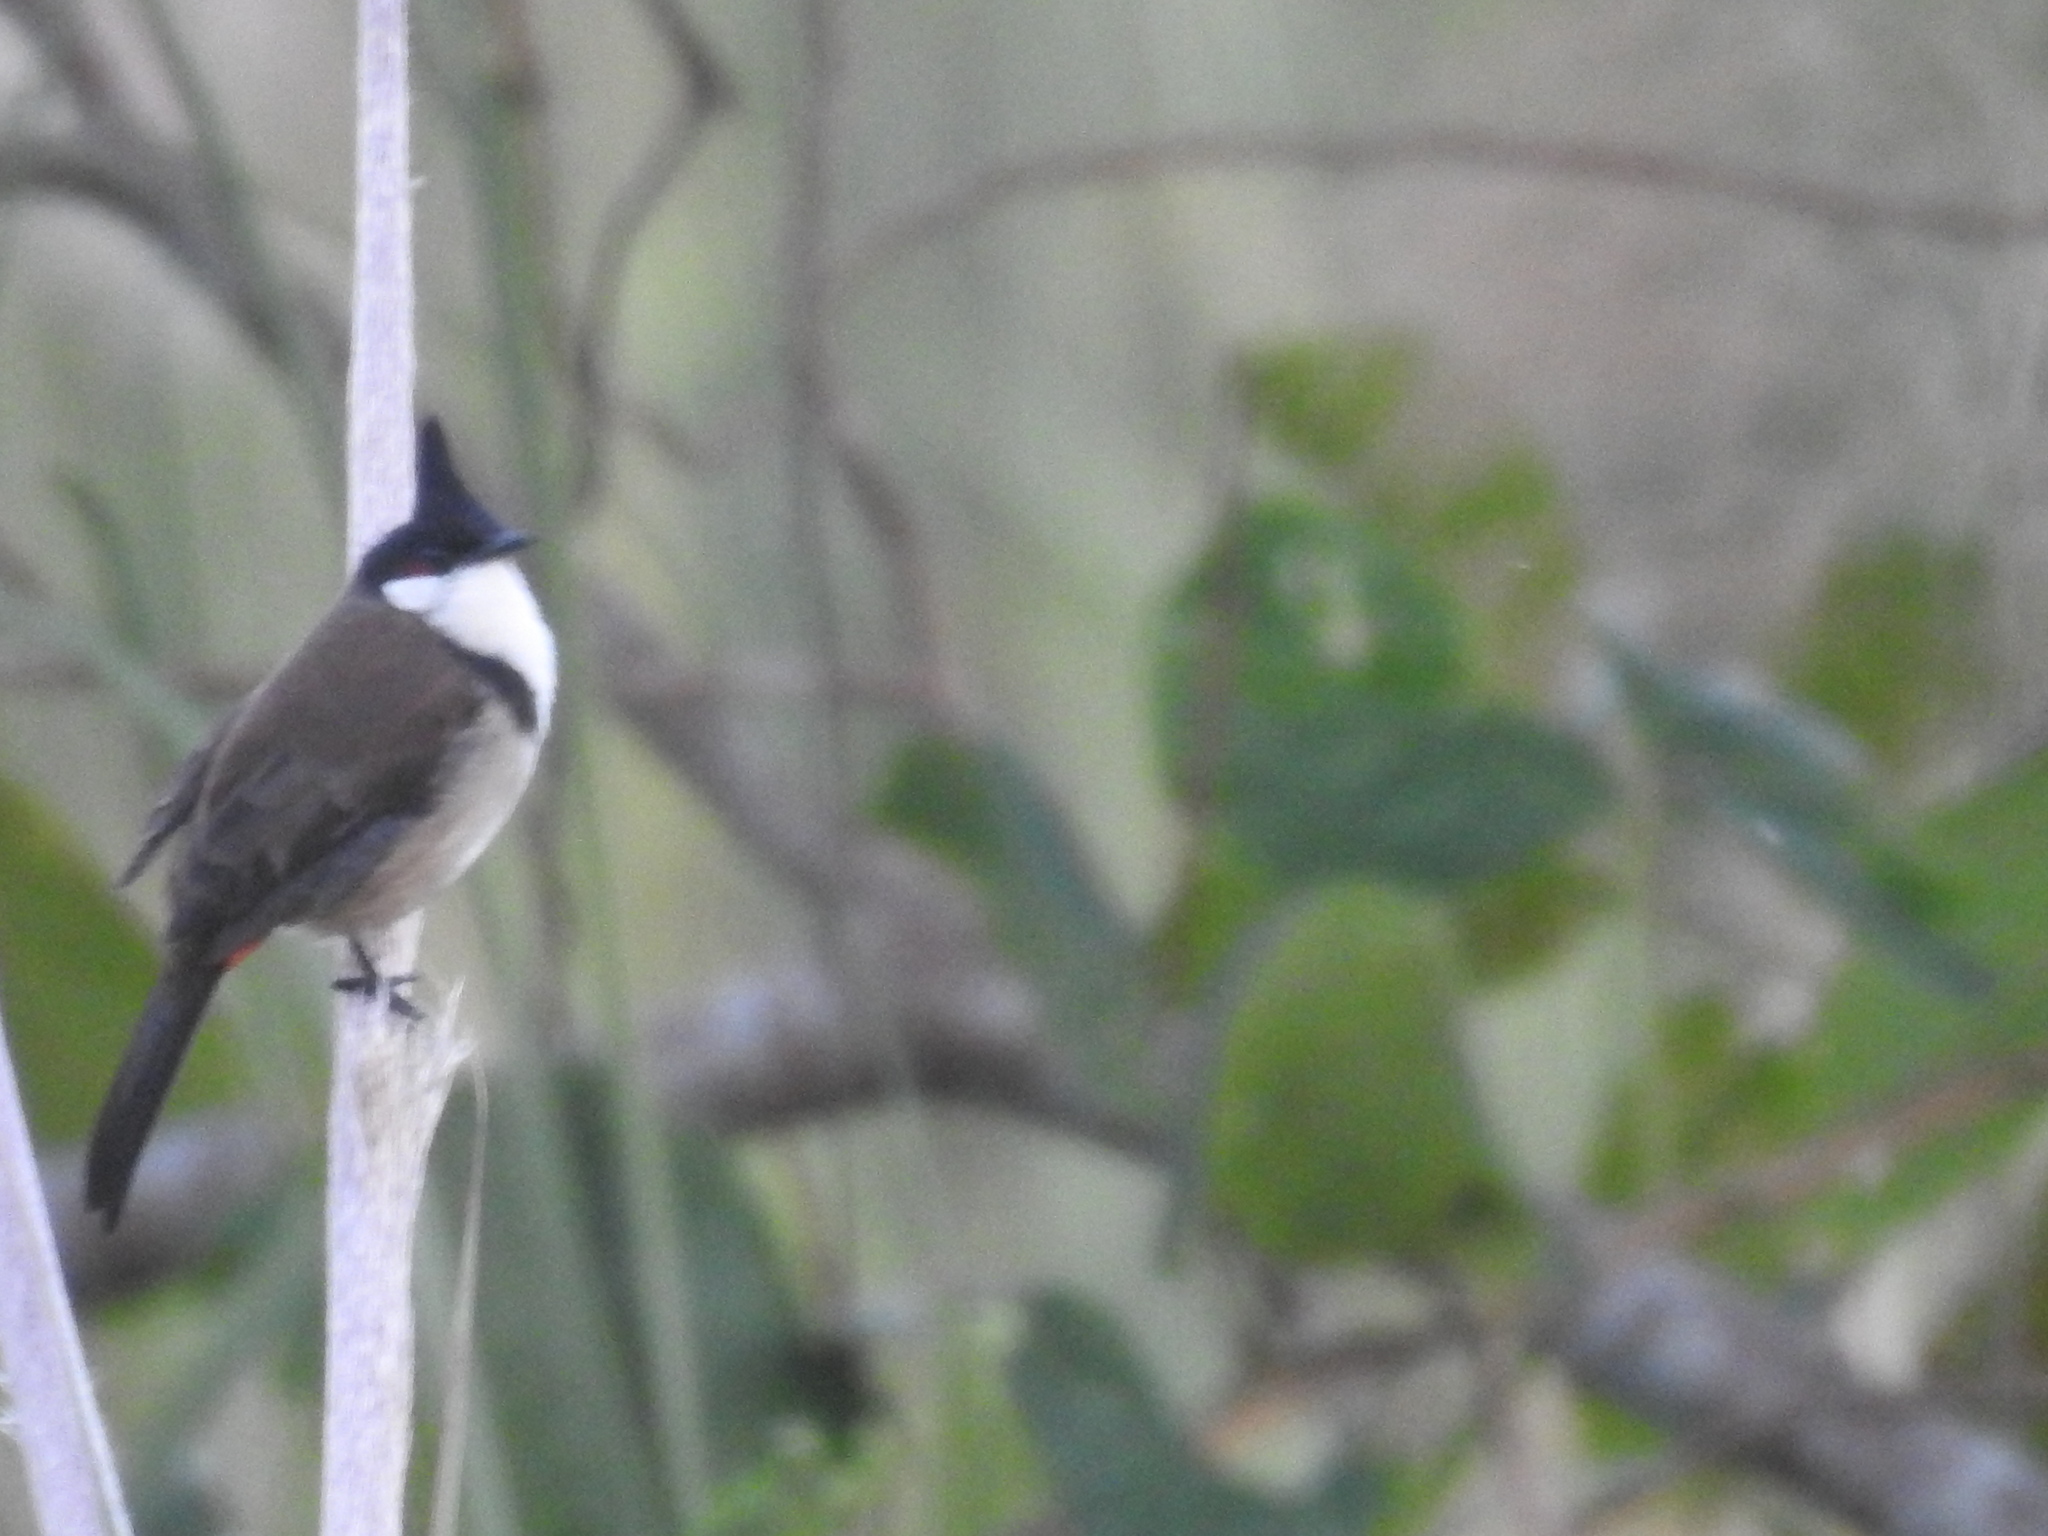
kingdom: Animalia
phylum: Chordata
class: Aves
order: Passeriformes
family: Pycnonotidae
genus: Pycnonotus
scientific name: Pycnonotus jocosus
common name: Red-whiskered bulbul
